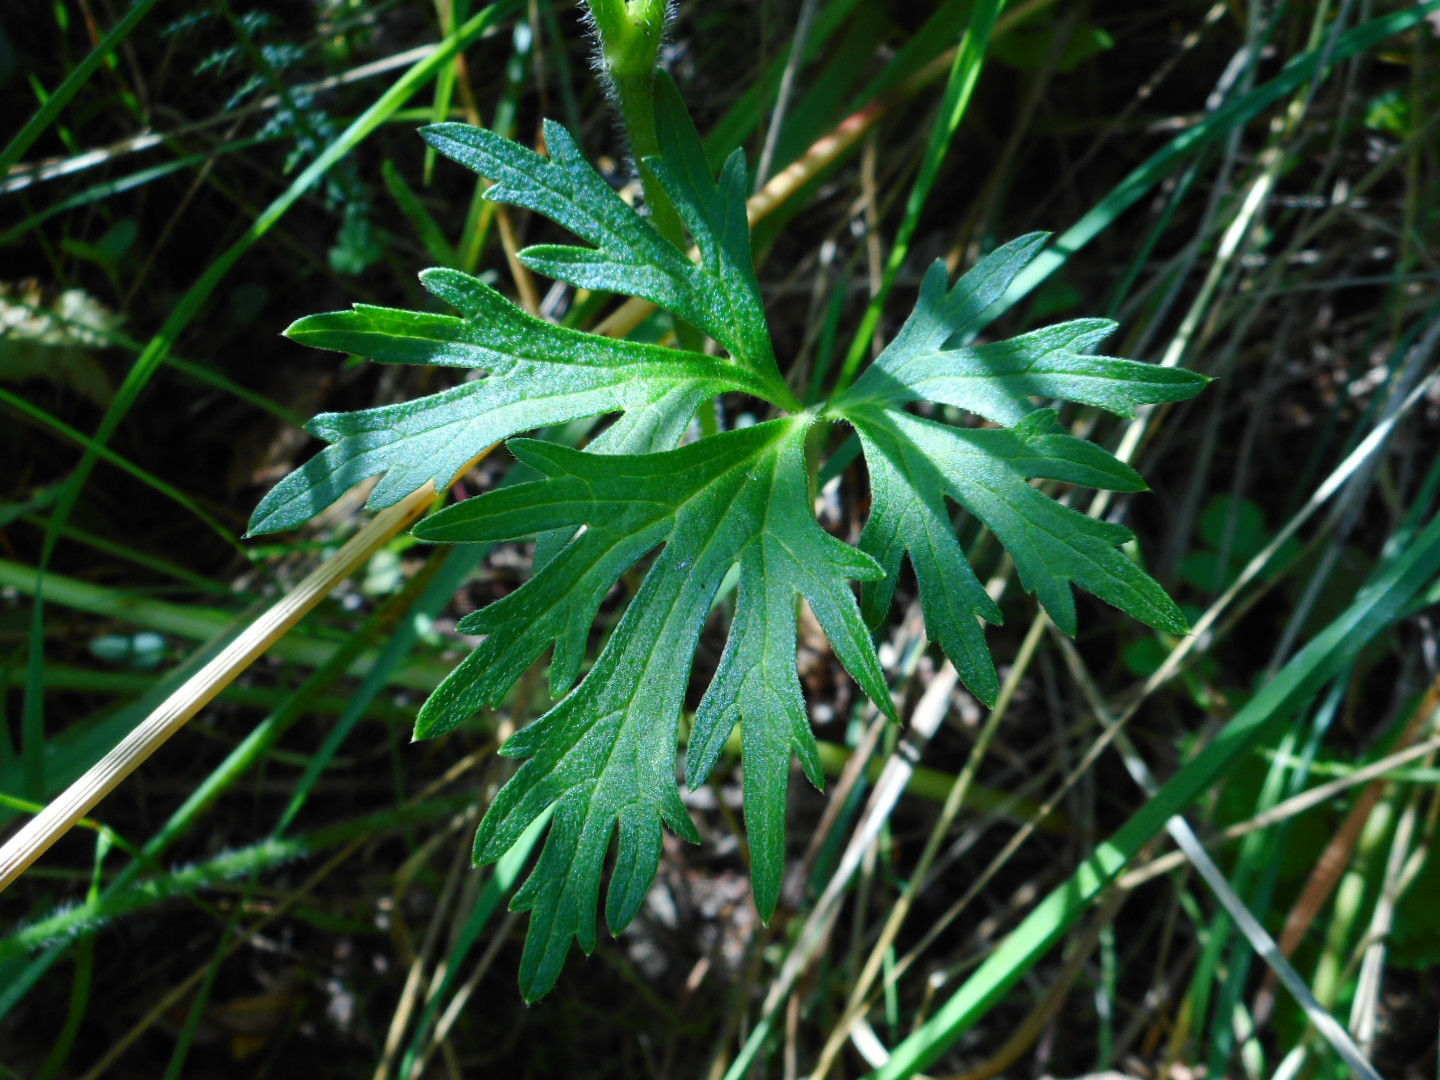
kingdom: Plantae
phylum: Tracheophyta
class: Magnoliopsida
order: Ranunculales
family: Ranunculaceae
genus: Ranunculus
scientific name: Ranunculus acris
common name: Meadow buttercup
